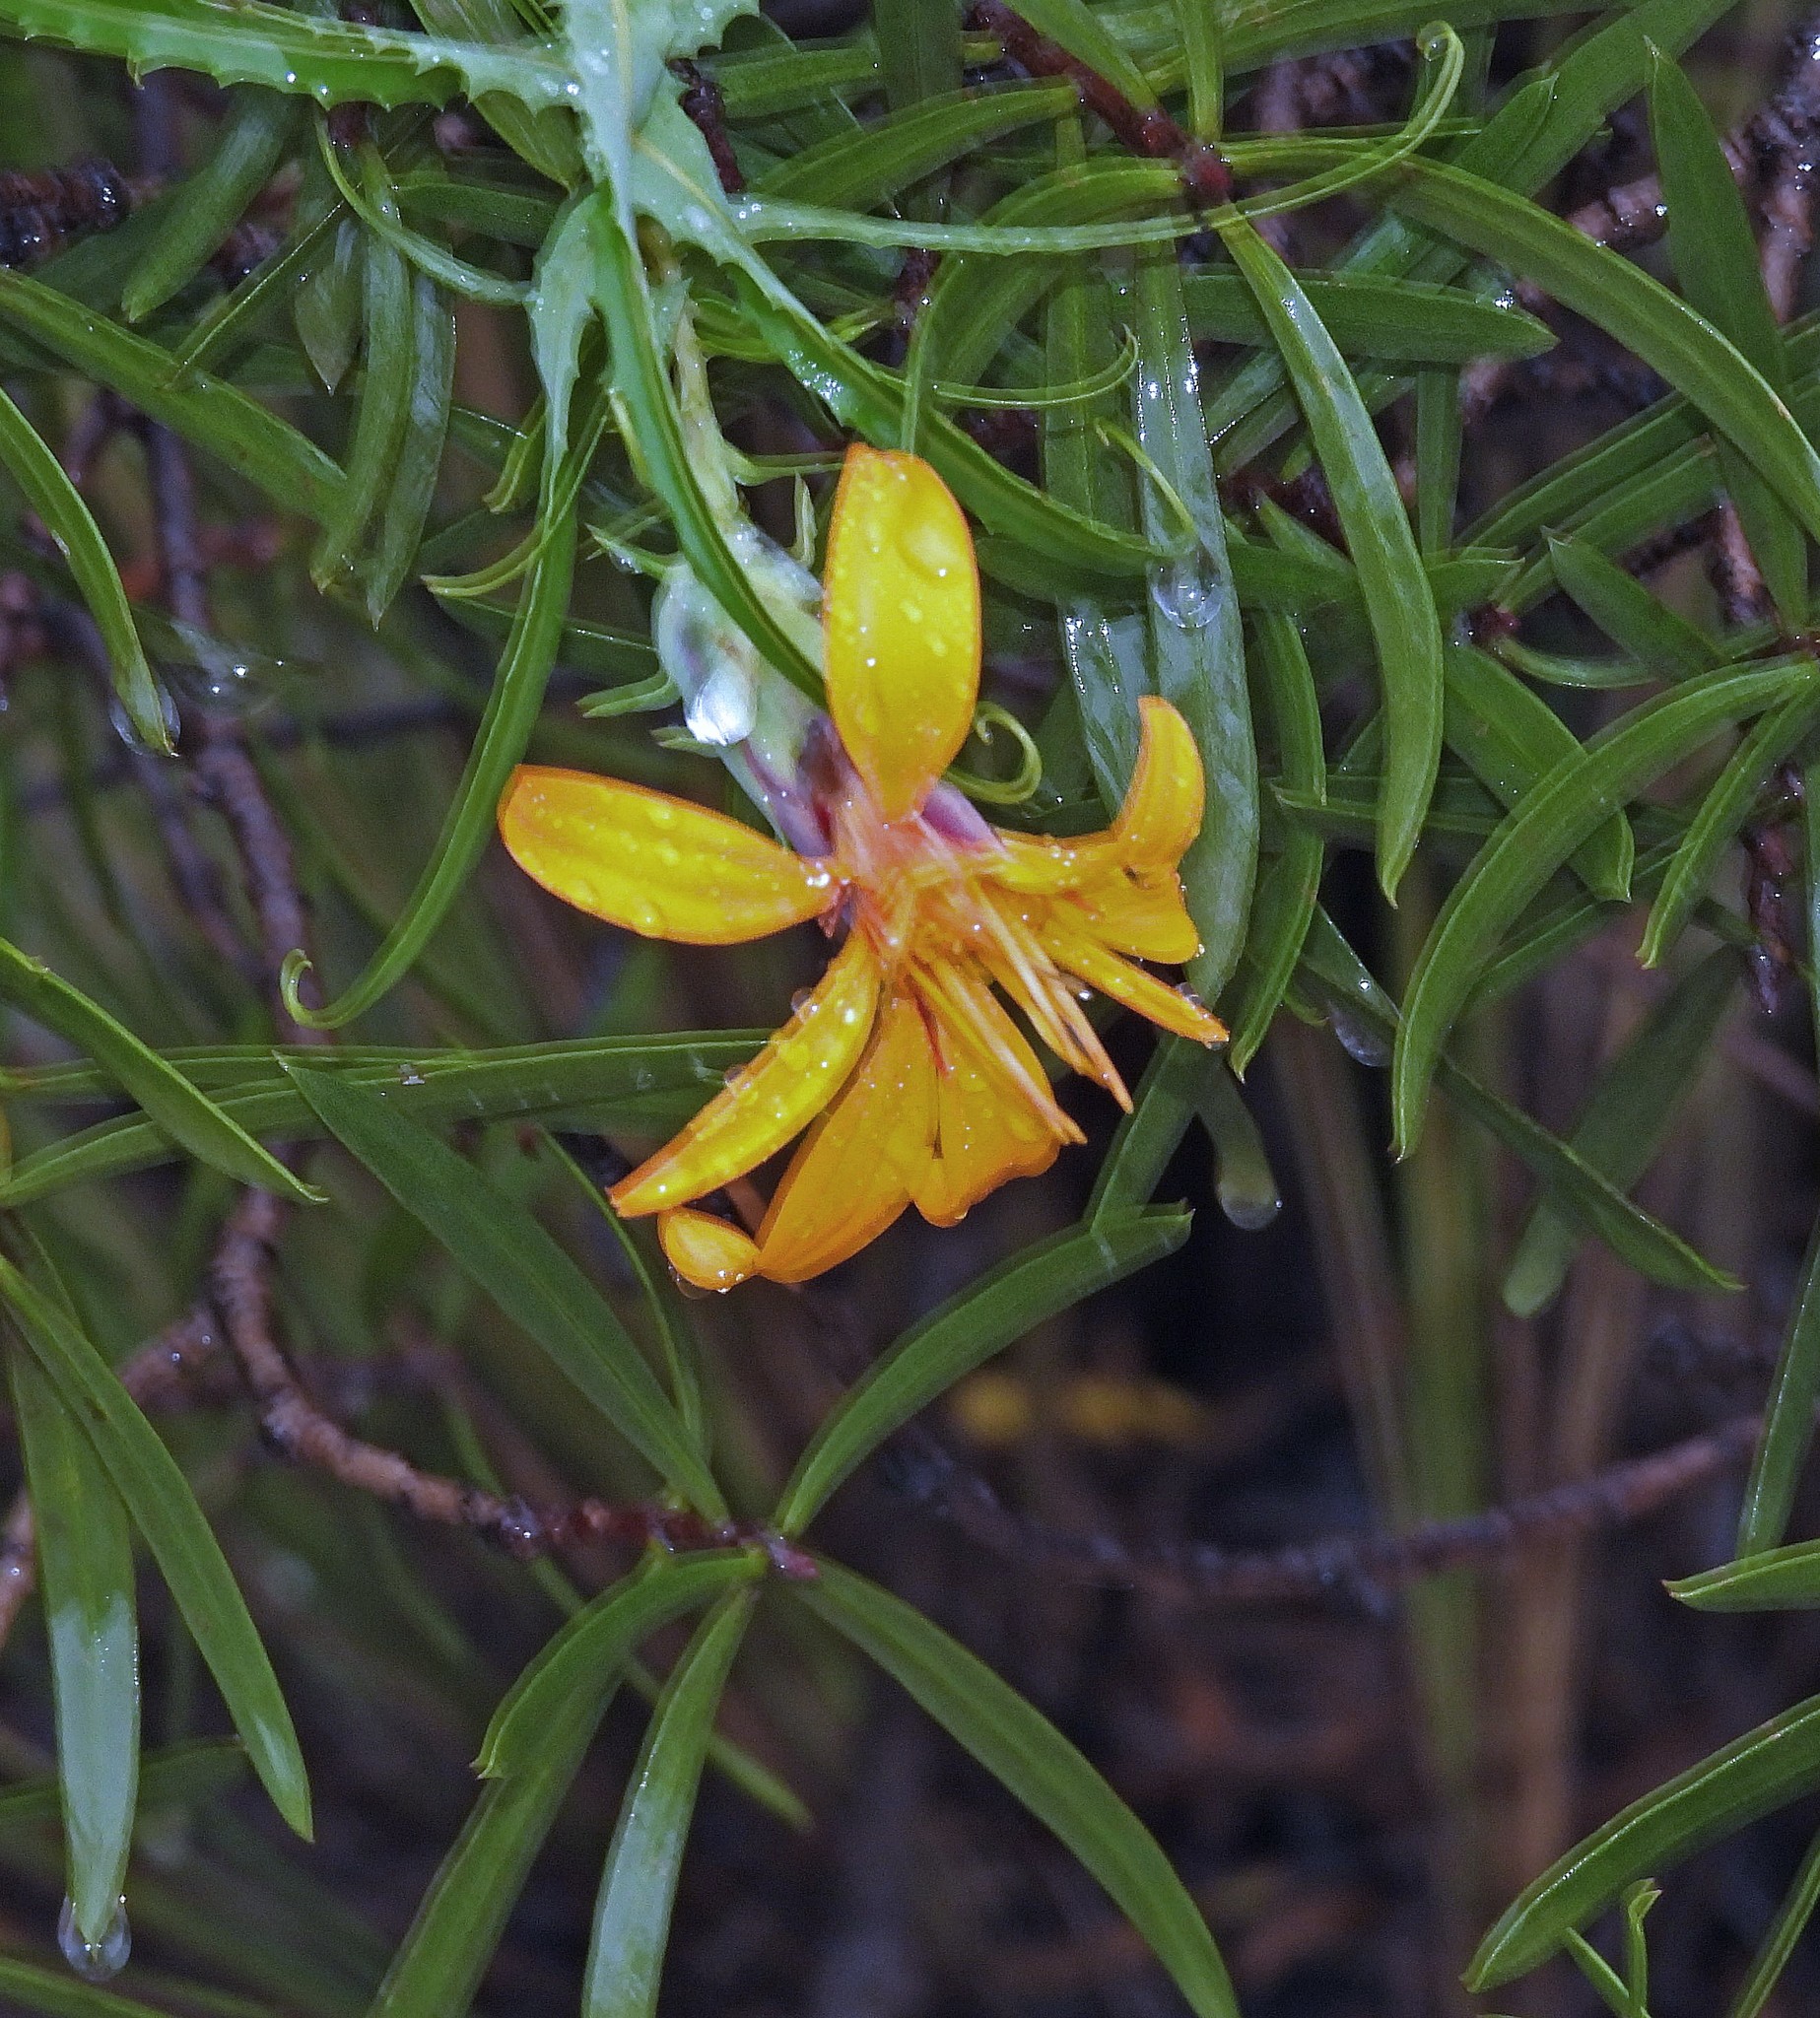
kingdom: Plantae
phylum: Tracheophyta
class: Magnoliopsida
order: Asterales
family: Asteraceae
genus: Mutisia
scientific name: Mutisia subspinosa
